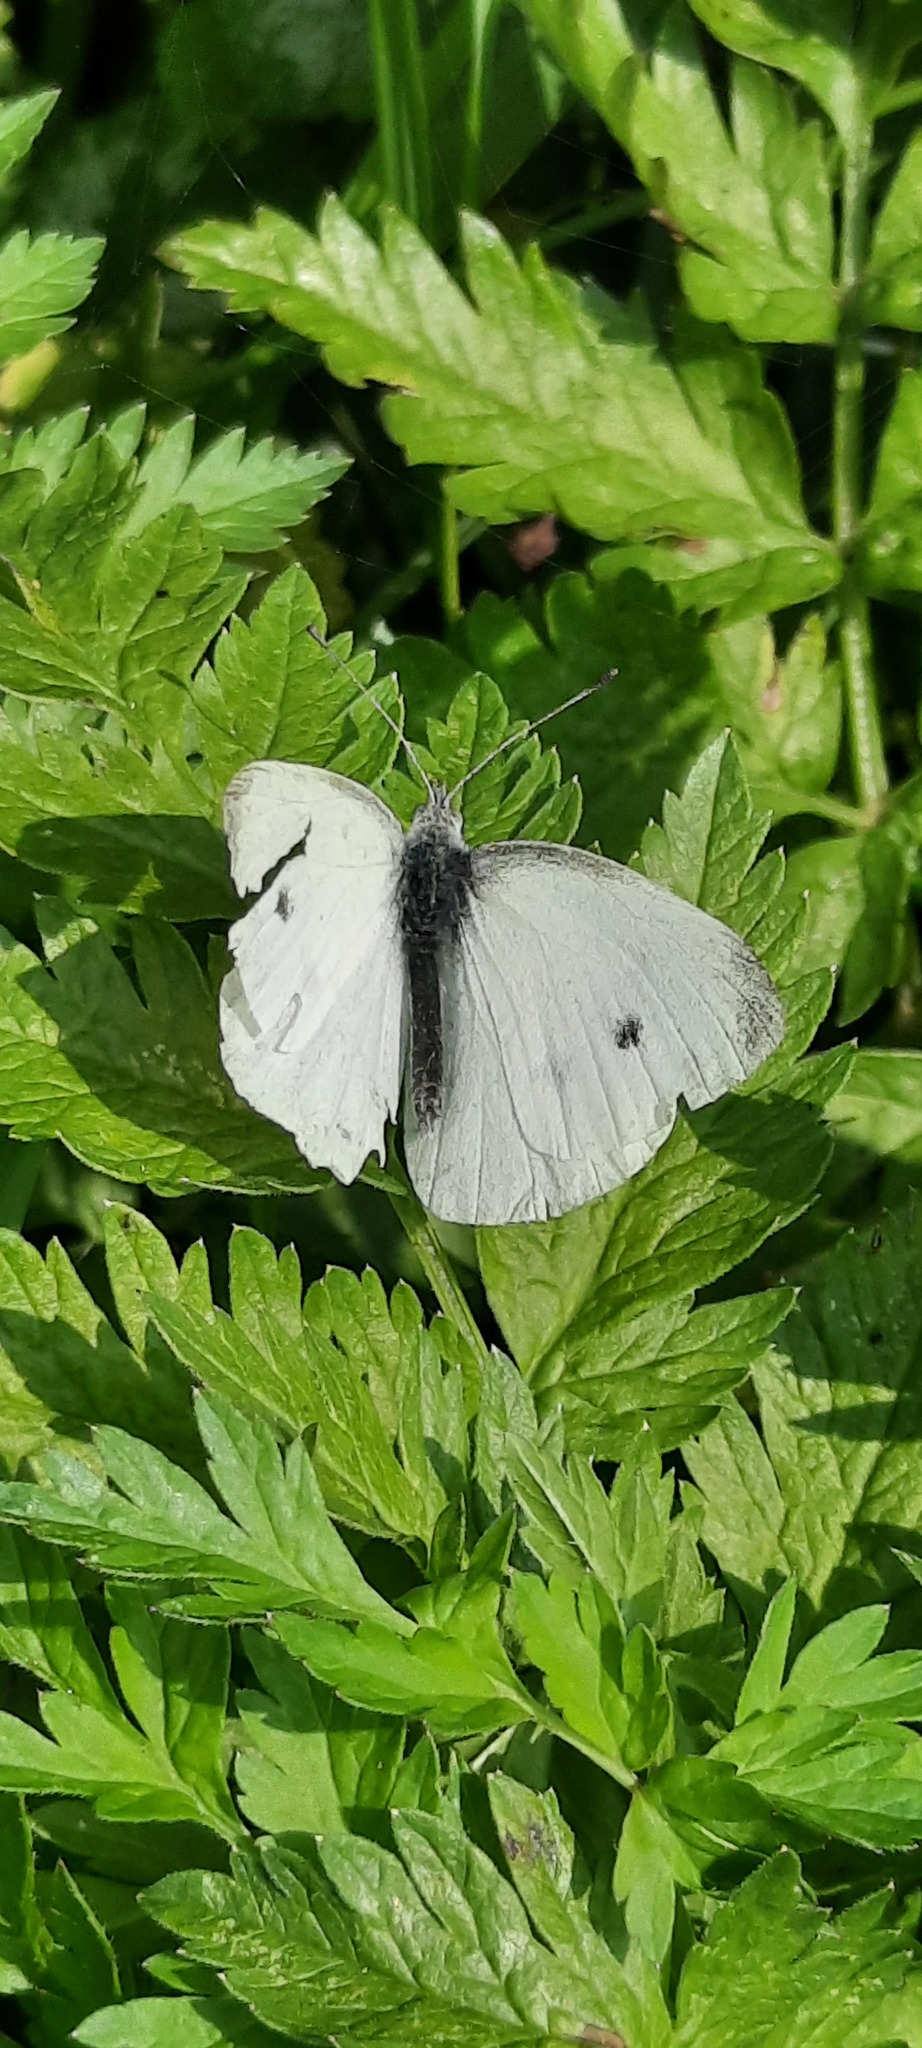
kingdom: Animalia
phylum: Arthropoda
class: Insecta
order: Lepidoptera
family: Pieridae
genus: Pieris
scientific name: Pieris rapae
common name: Small white
